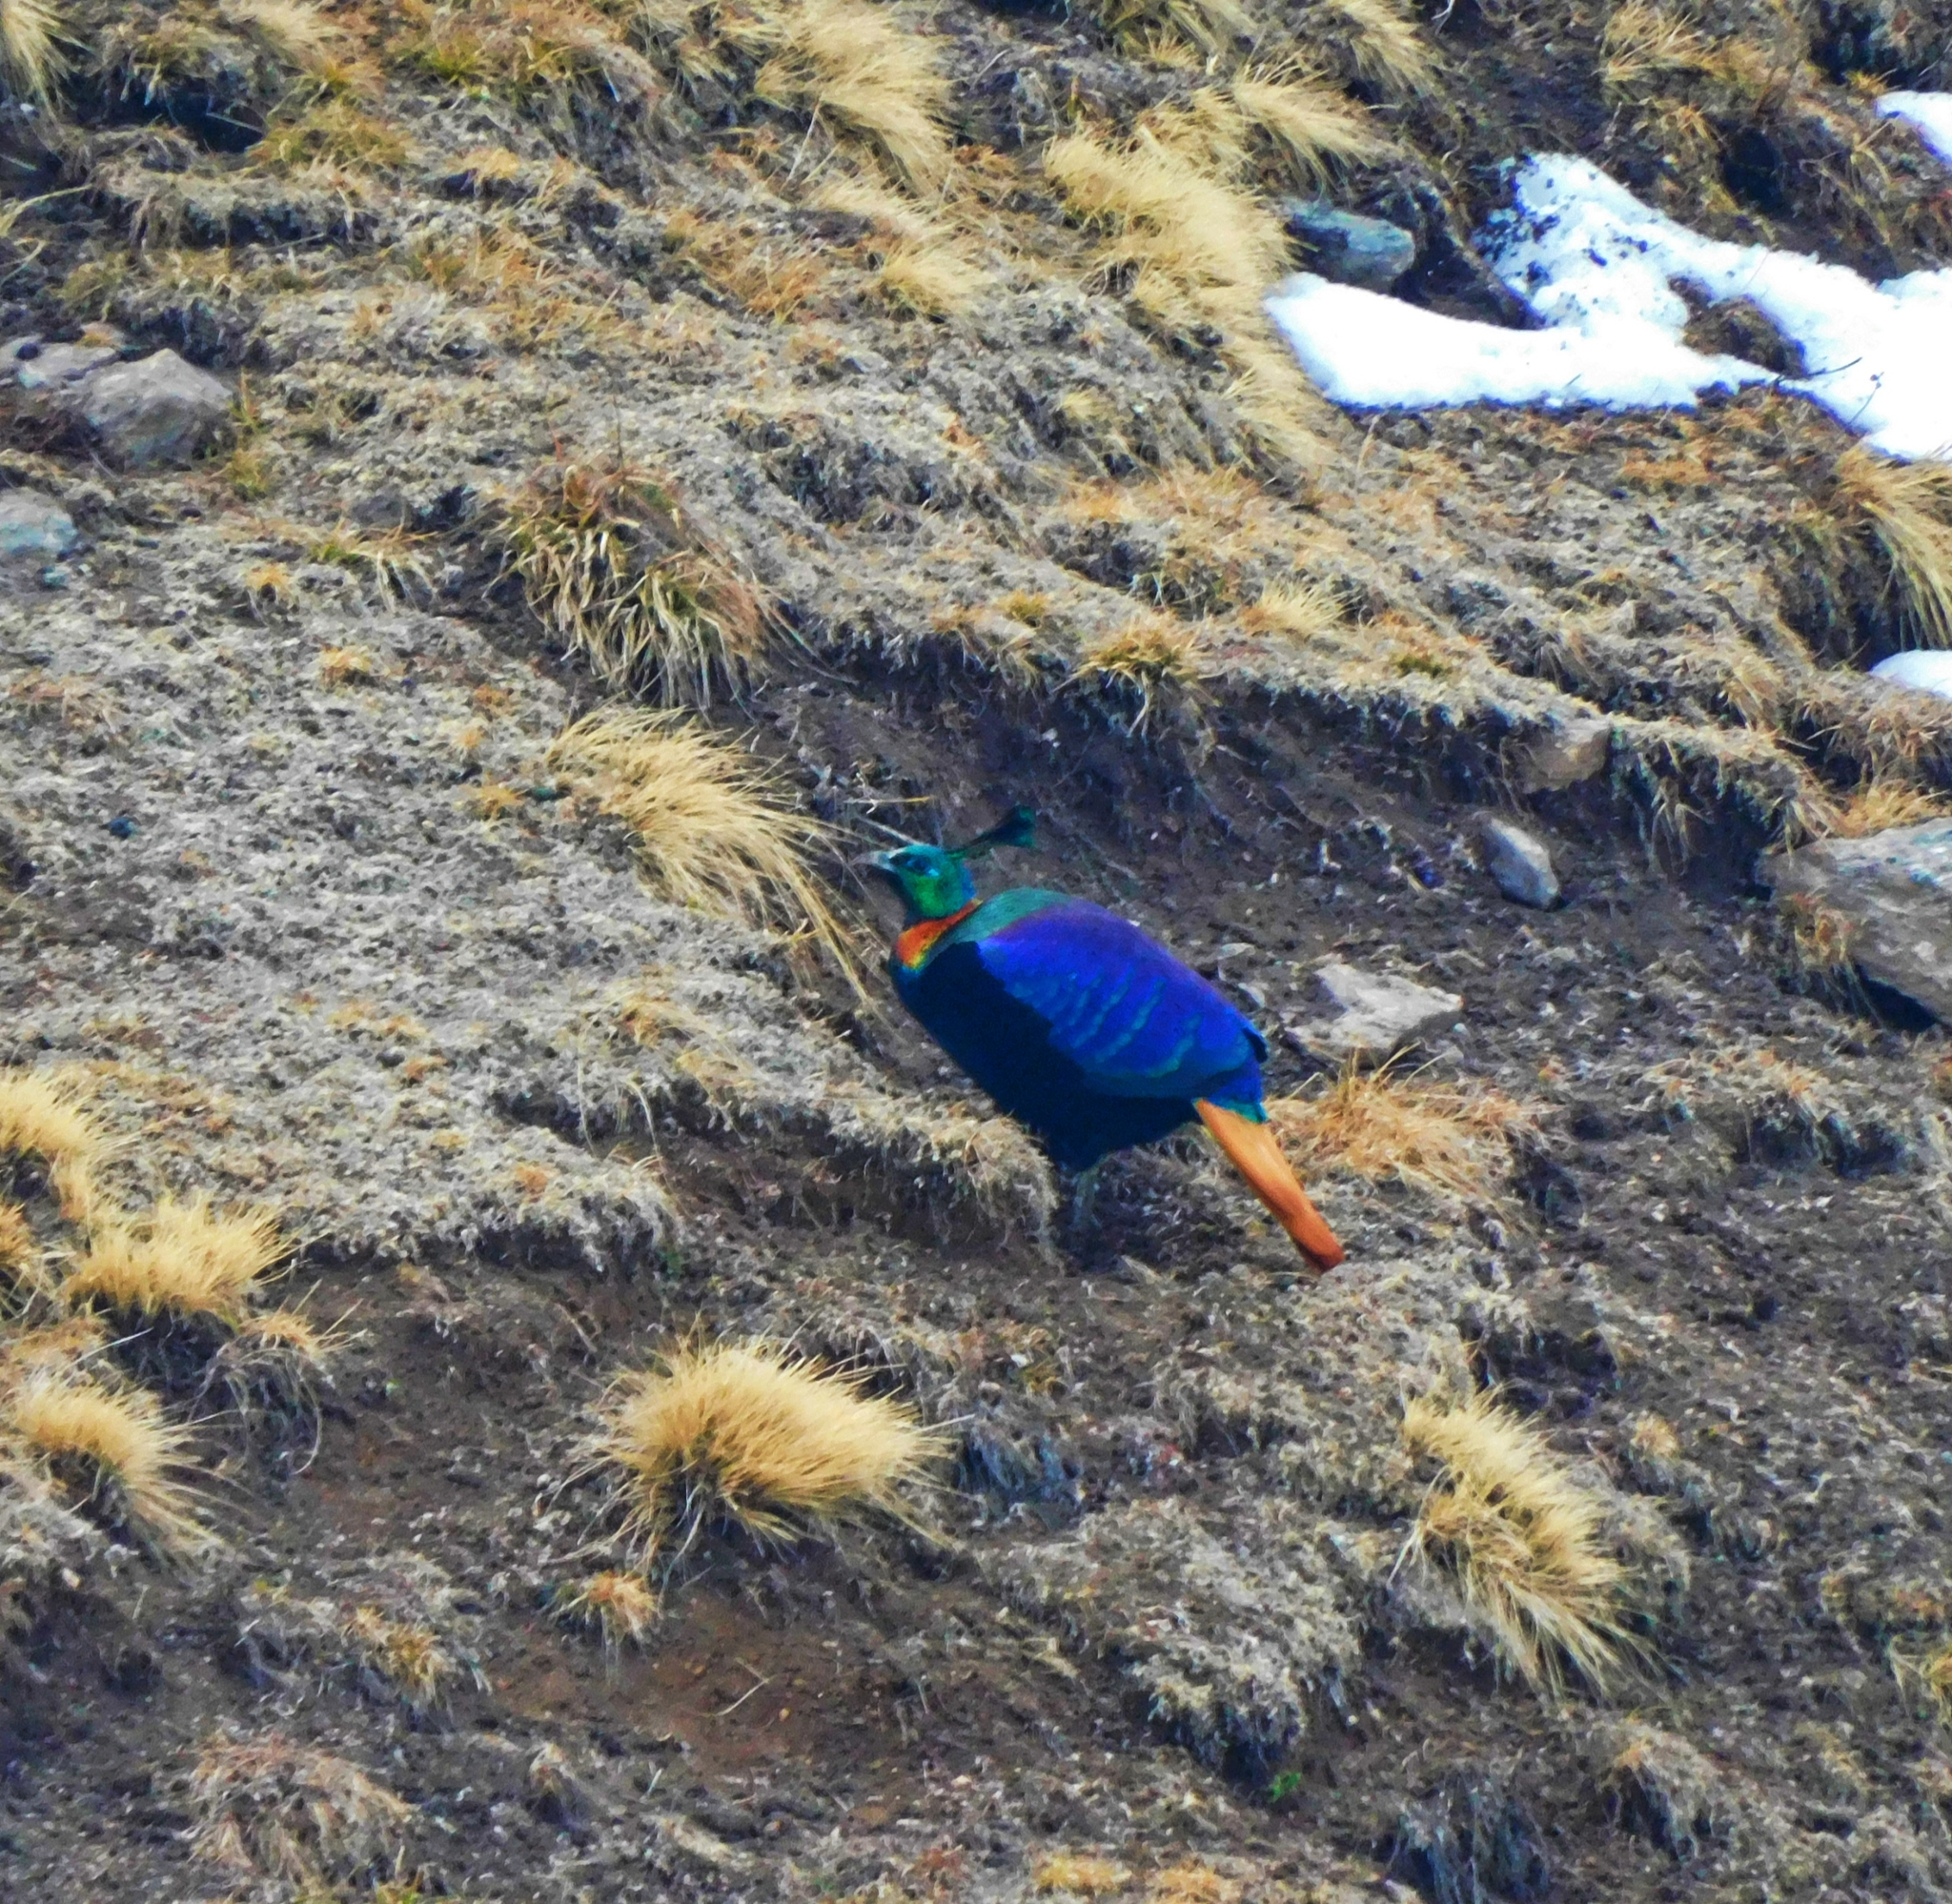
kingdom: Animalia
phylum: Chordata
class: Aves
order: Galliformes
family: Phasianidae
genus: Lophophorus
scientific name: Lophophorus impejanus
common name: Himalayan monal
